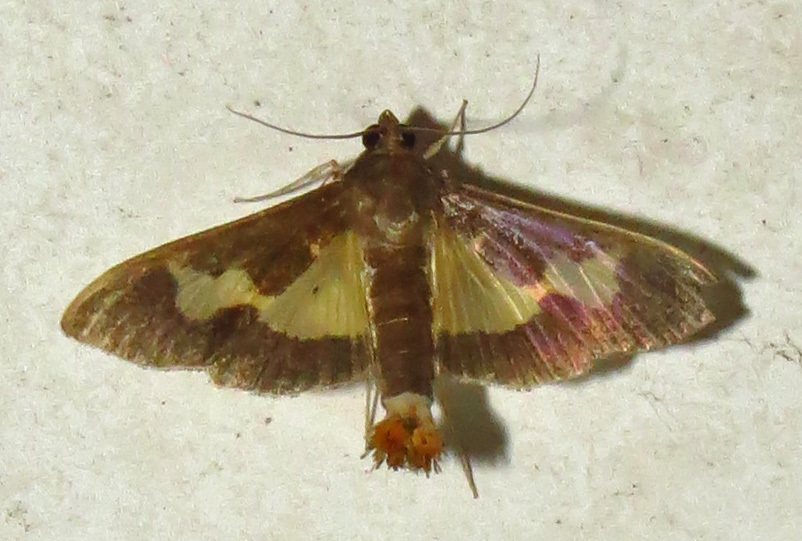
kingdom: Animalia
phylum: Arthropoda
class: Insecta
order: Lepidoptera
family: Crambidae
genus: Cryptographis
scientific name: Cryptographis nitidalis
